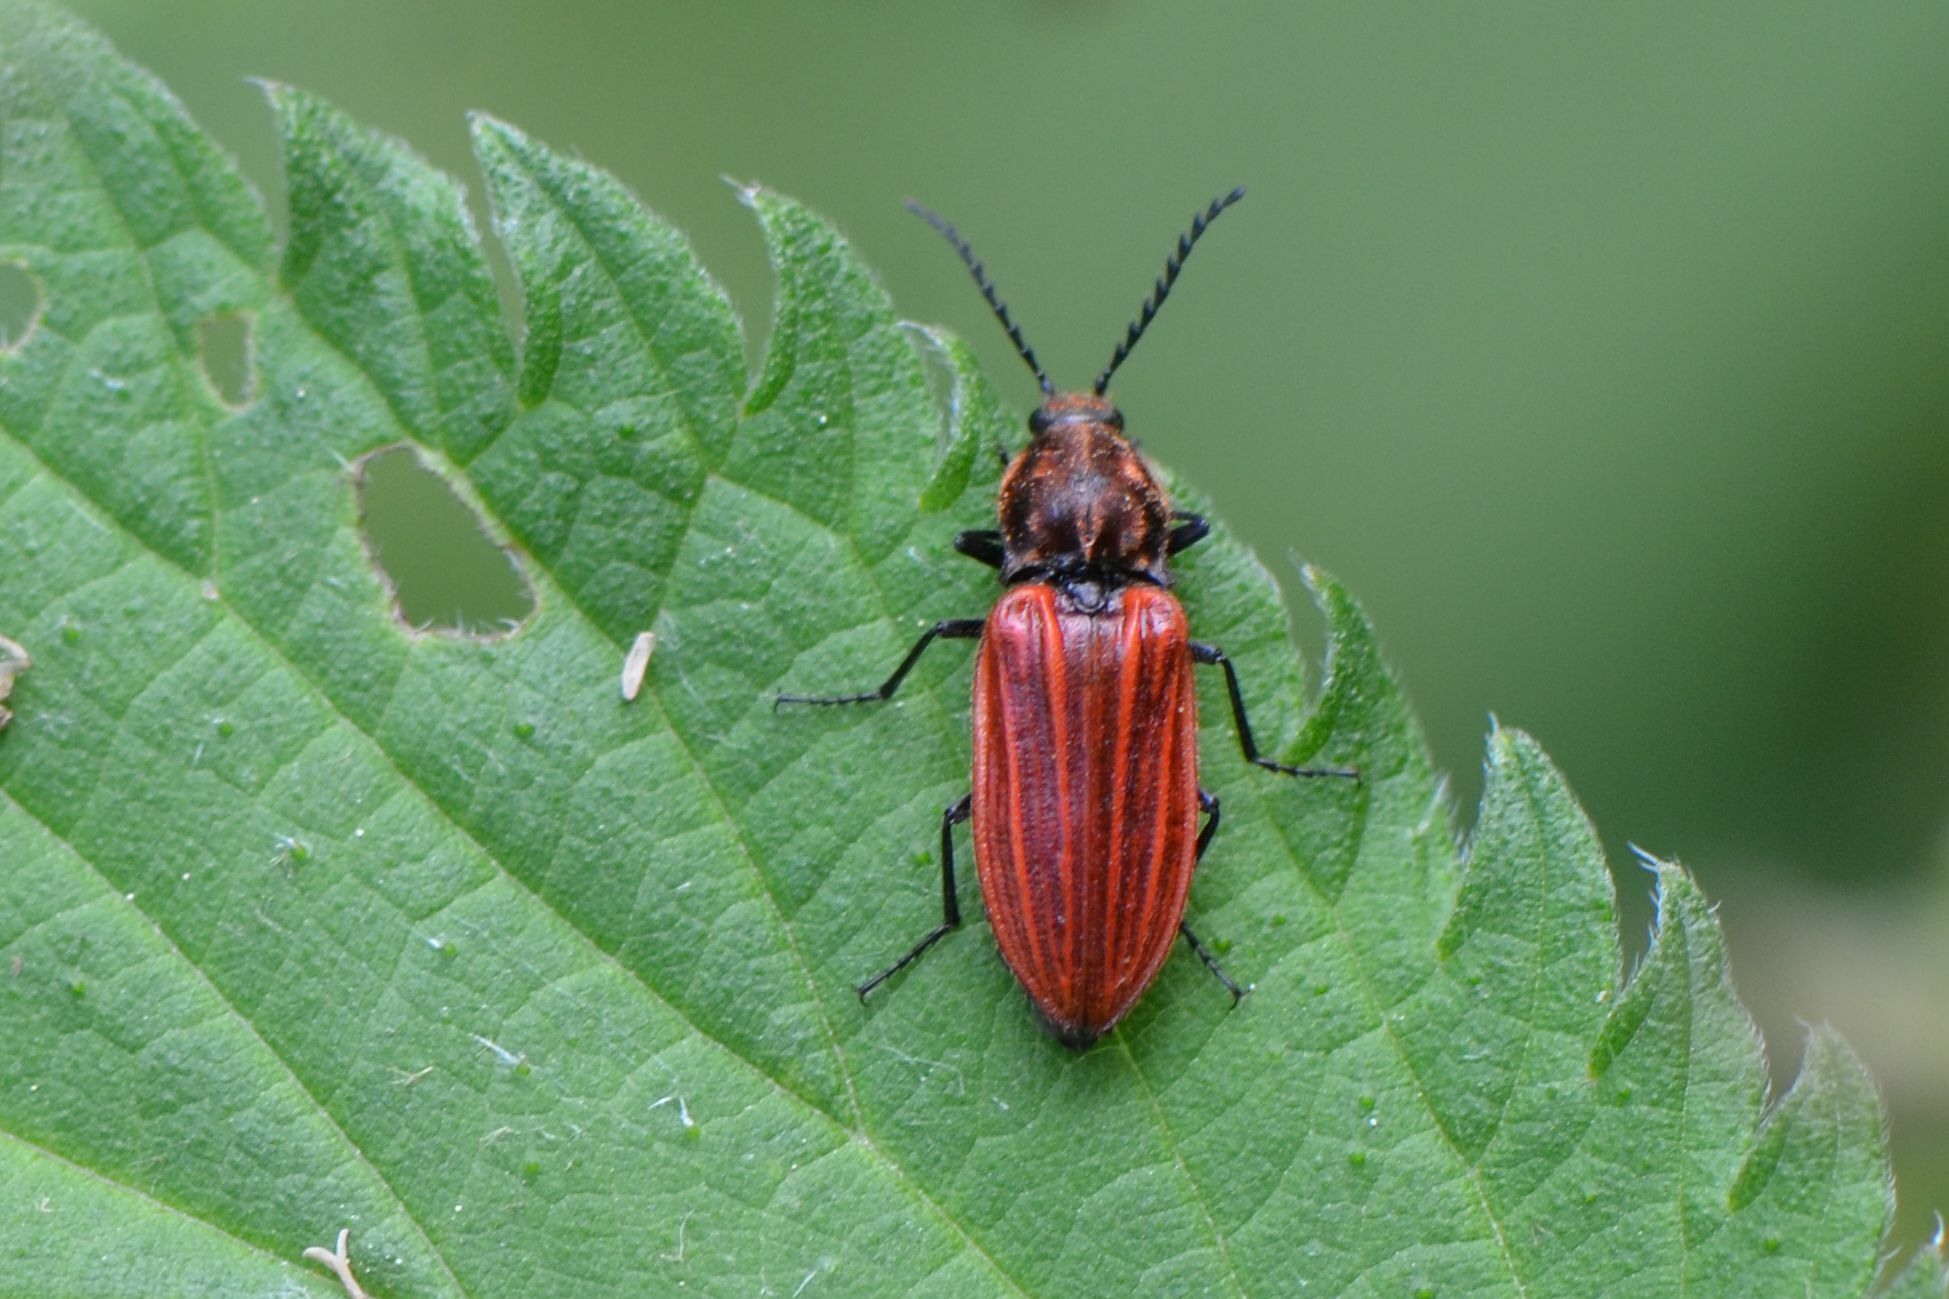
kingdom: Animalia
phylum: Arthropoda
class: Insecta
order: Coleoptera
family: Elateridae
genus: Anostirus
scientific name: Anostirus purpureus
